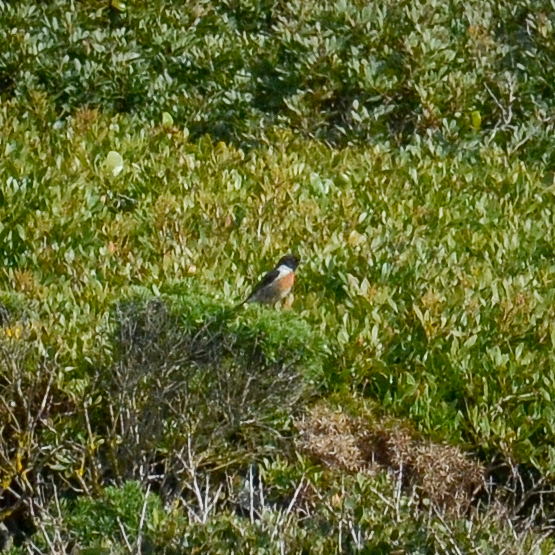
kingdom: Animalia
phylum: Chordata
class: Aves
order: Passeriformes
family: Muscicapidae
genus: Saxicola
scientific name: Saxicola rubicola
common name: European stonechat
